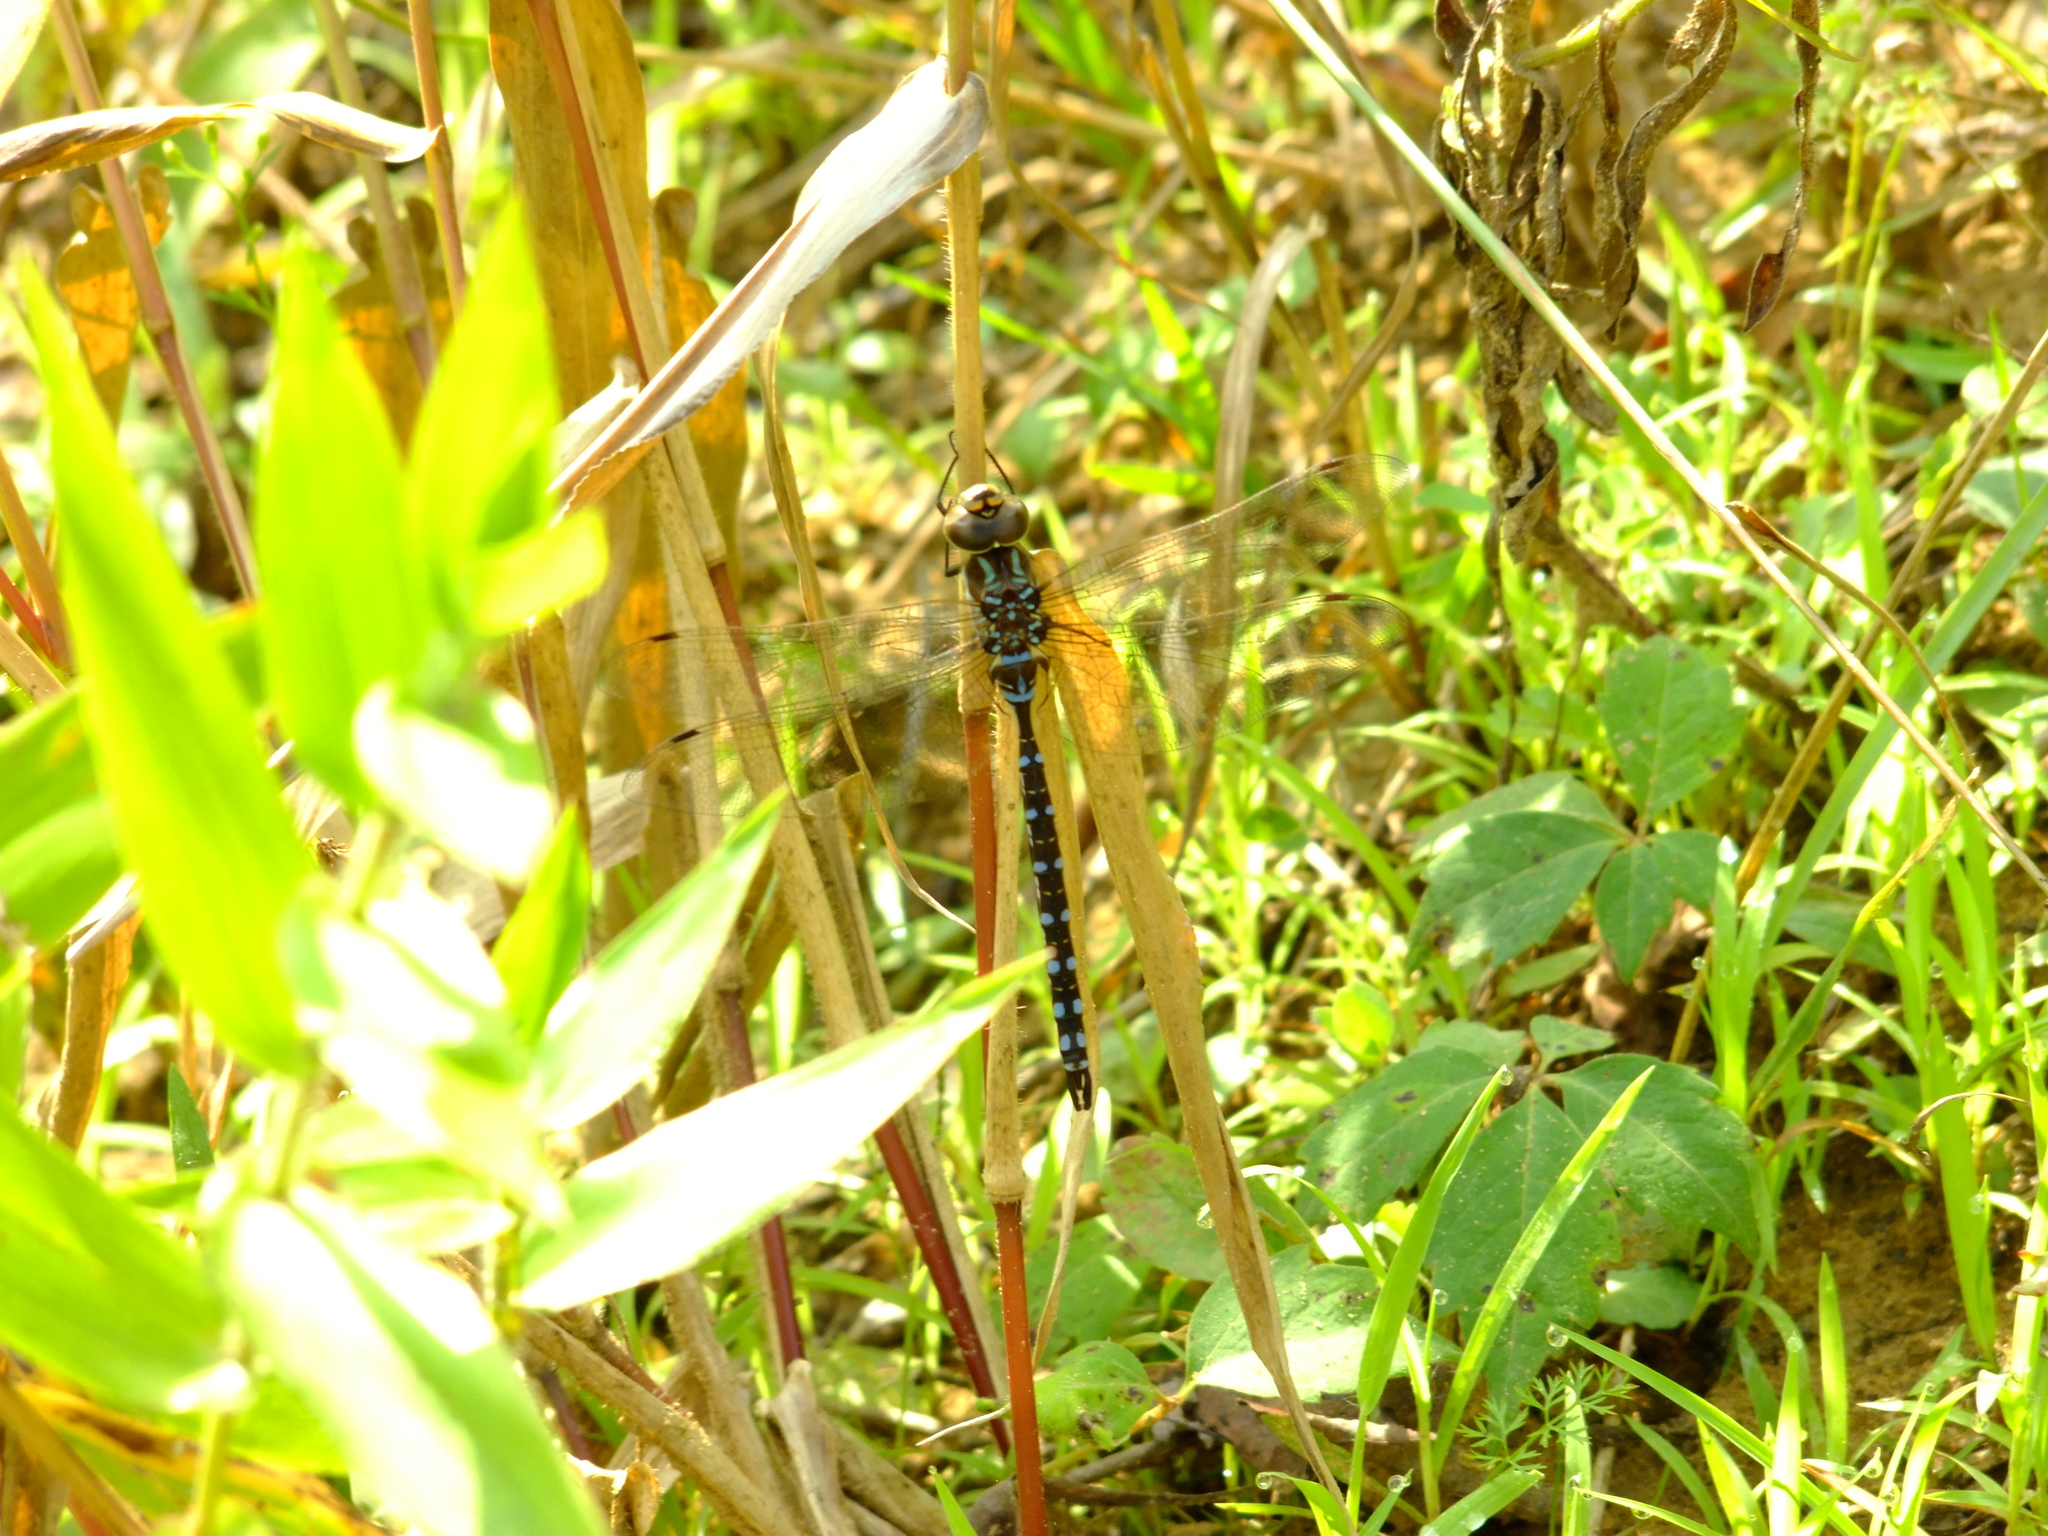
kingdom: Animalia
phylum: Arthropoda
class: Insecta
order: Odonata
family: Aeshnidae
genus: Aeshna
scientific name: Aeshna constricta
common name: Lance-tipped darner
